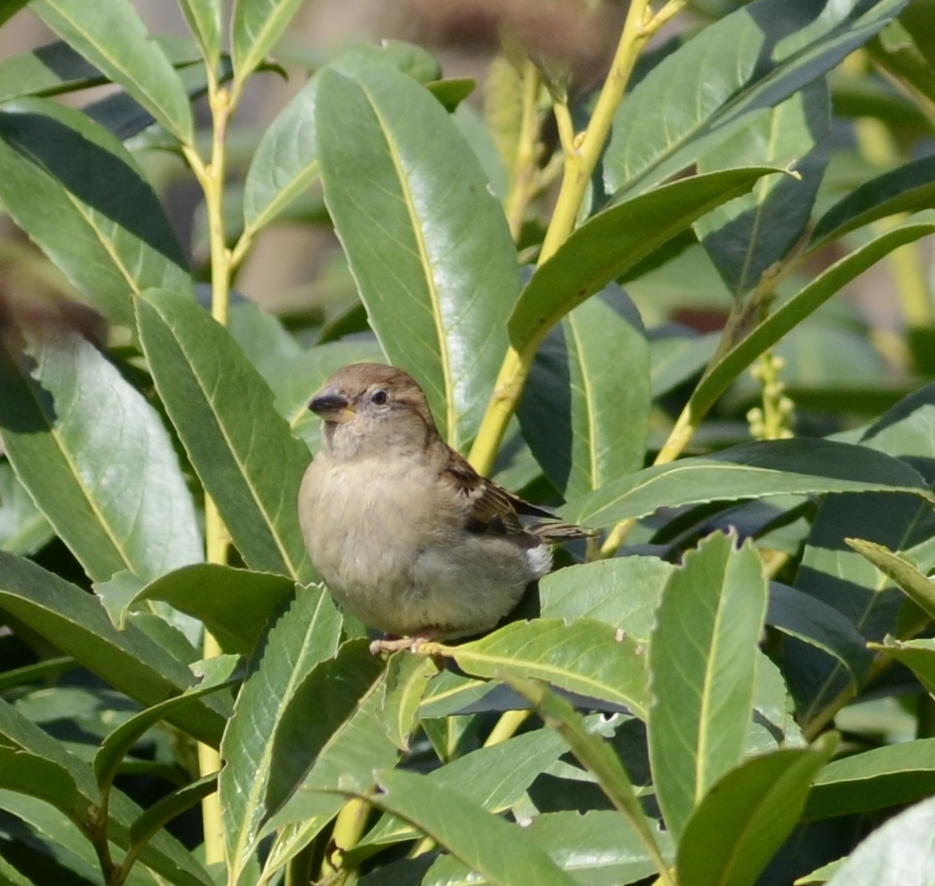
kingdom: Animalia
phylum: Chordata
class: Aves
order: Passeriformes
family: Passeridae
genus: Passer
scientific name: Passer domesticus
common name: House sparrow
